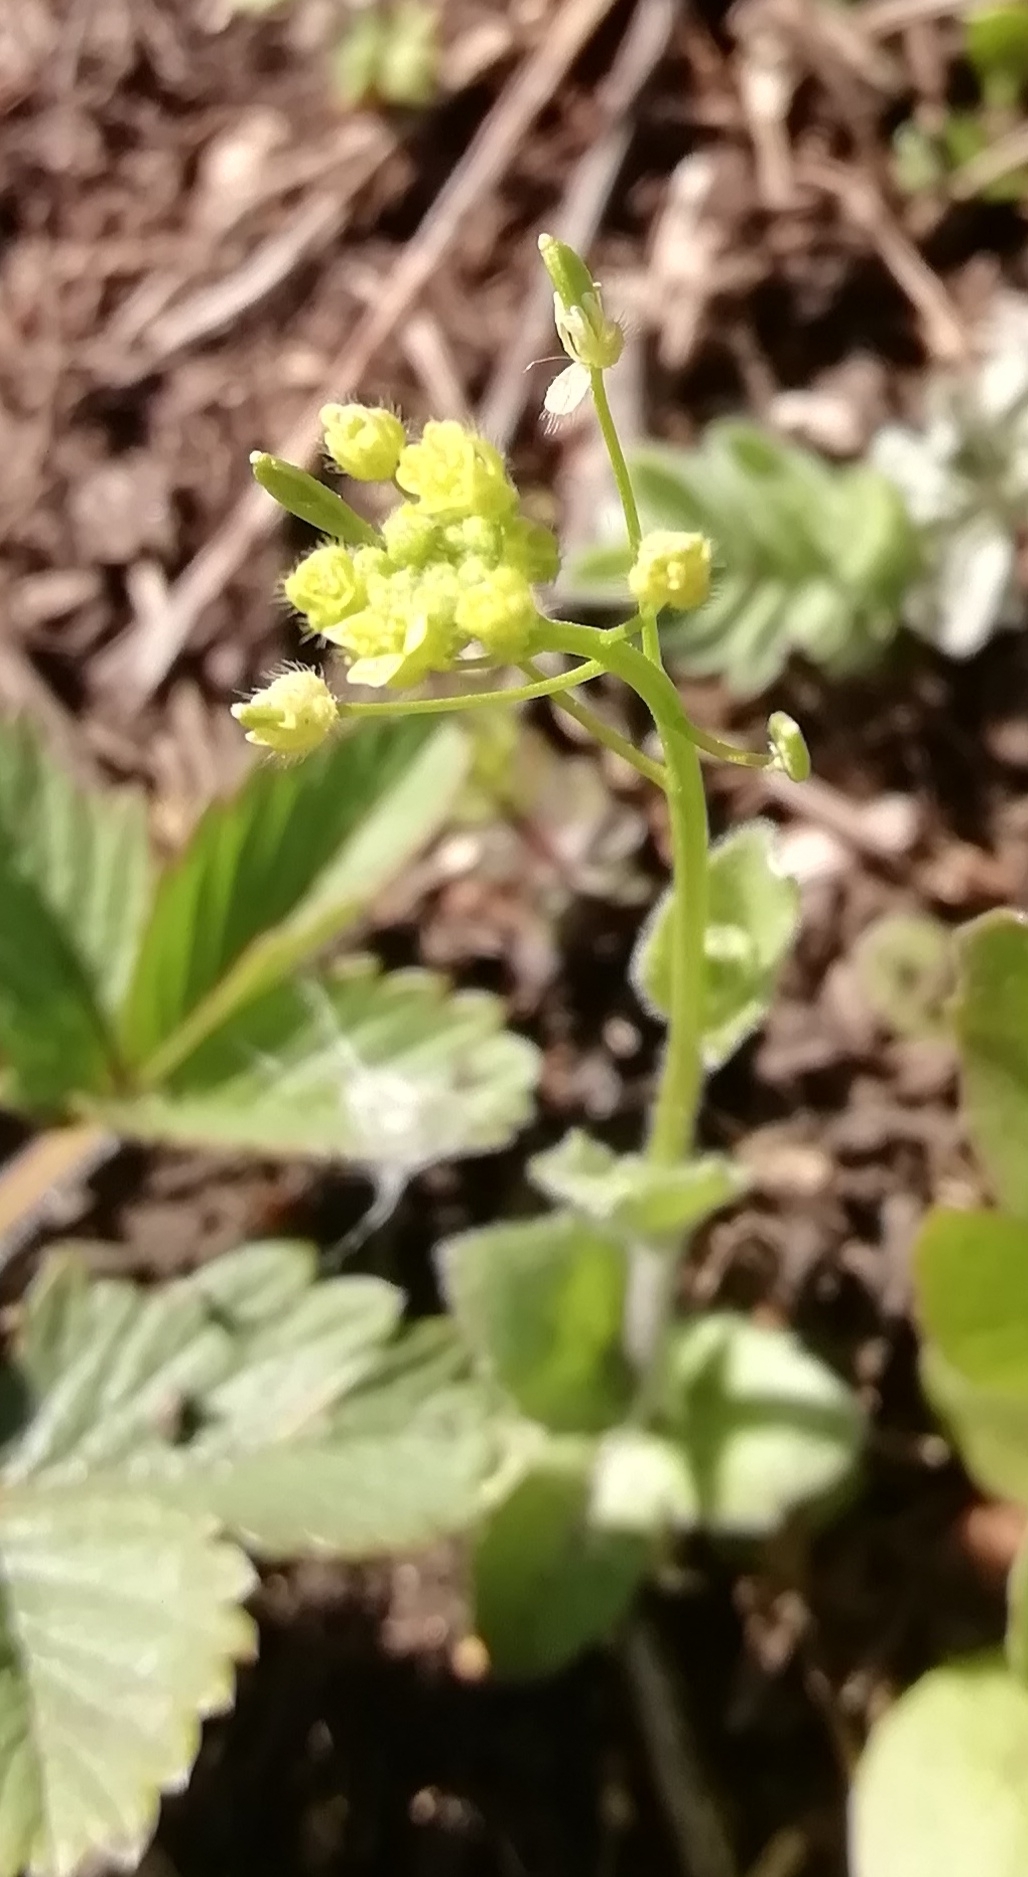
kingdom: Plantae
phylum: Tracheophyta
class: Magnoliopsida
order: Brassicales
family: Brassicaceae
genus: Draba
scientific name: Draba nemorosa
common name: Wood whitlow-grass
